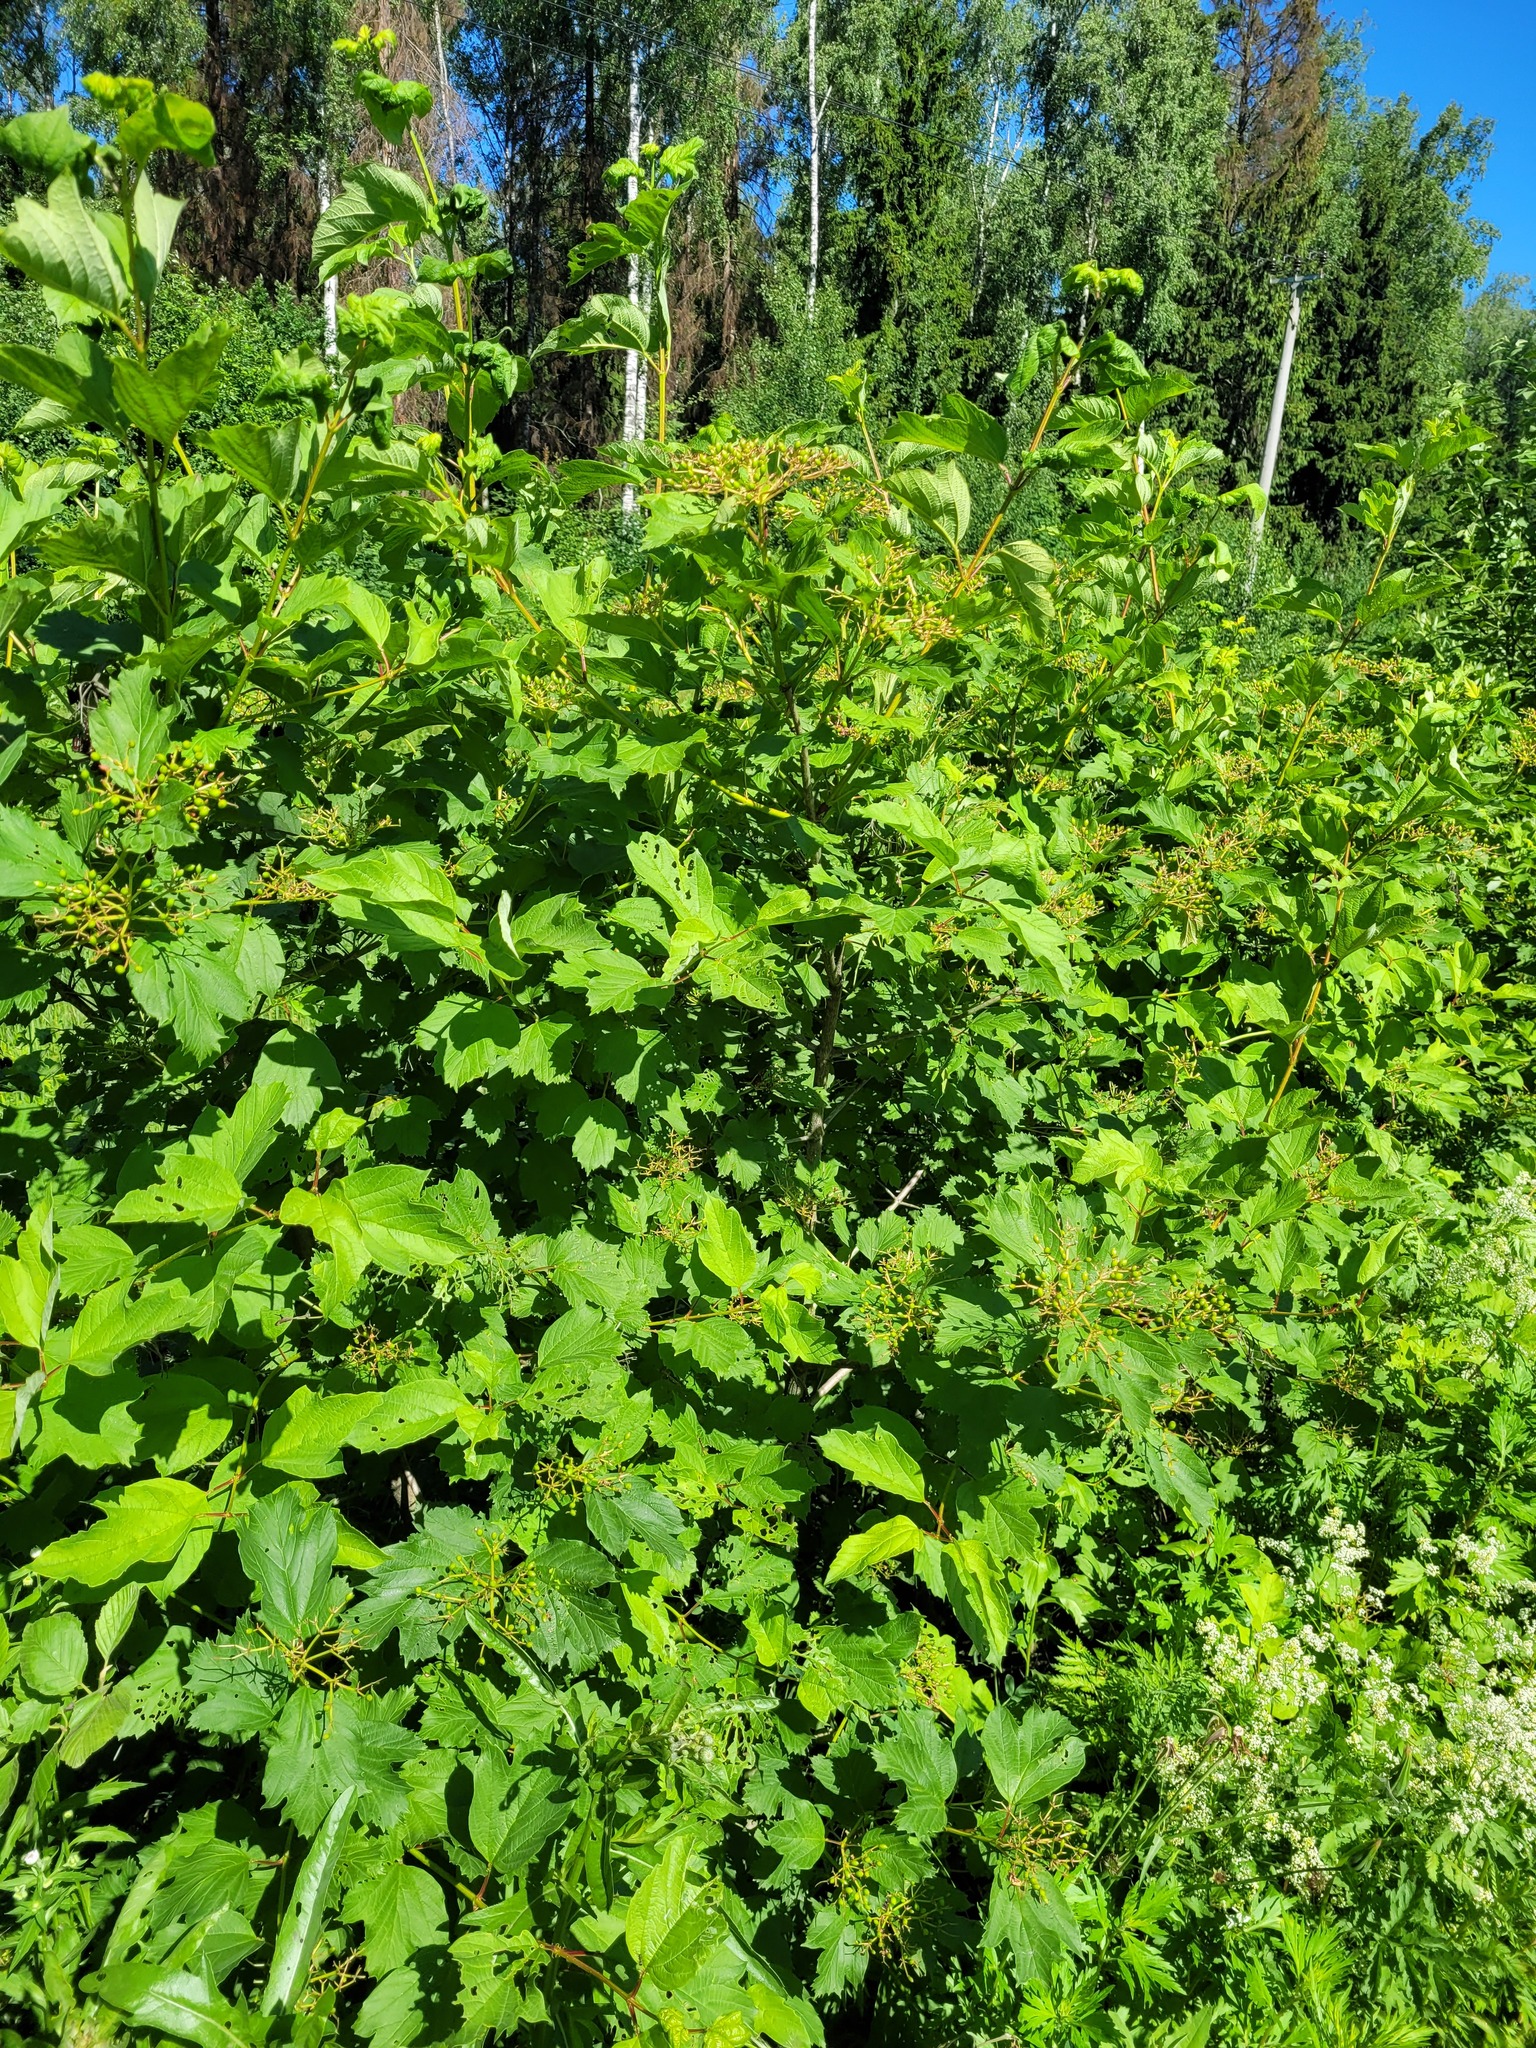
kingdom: Plantae
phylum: Tracheophyta
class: Magnoliopsida
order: Dipsacales
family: Viburnaceae
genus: Viburnum
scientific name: Viburnum opulus
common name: Guelder-rose
